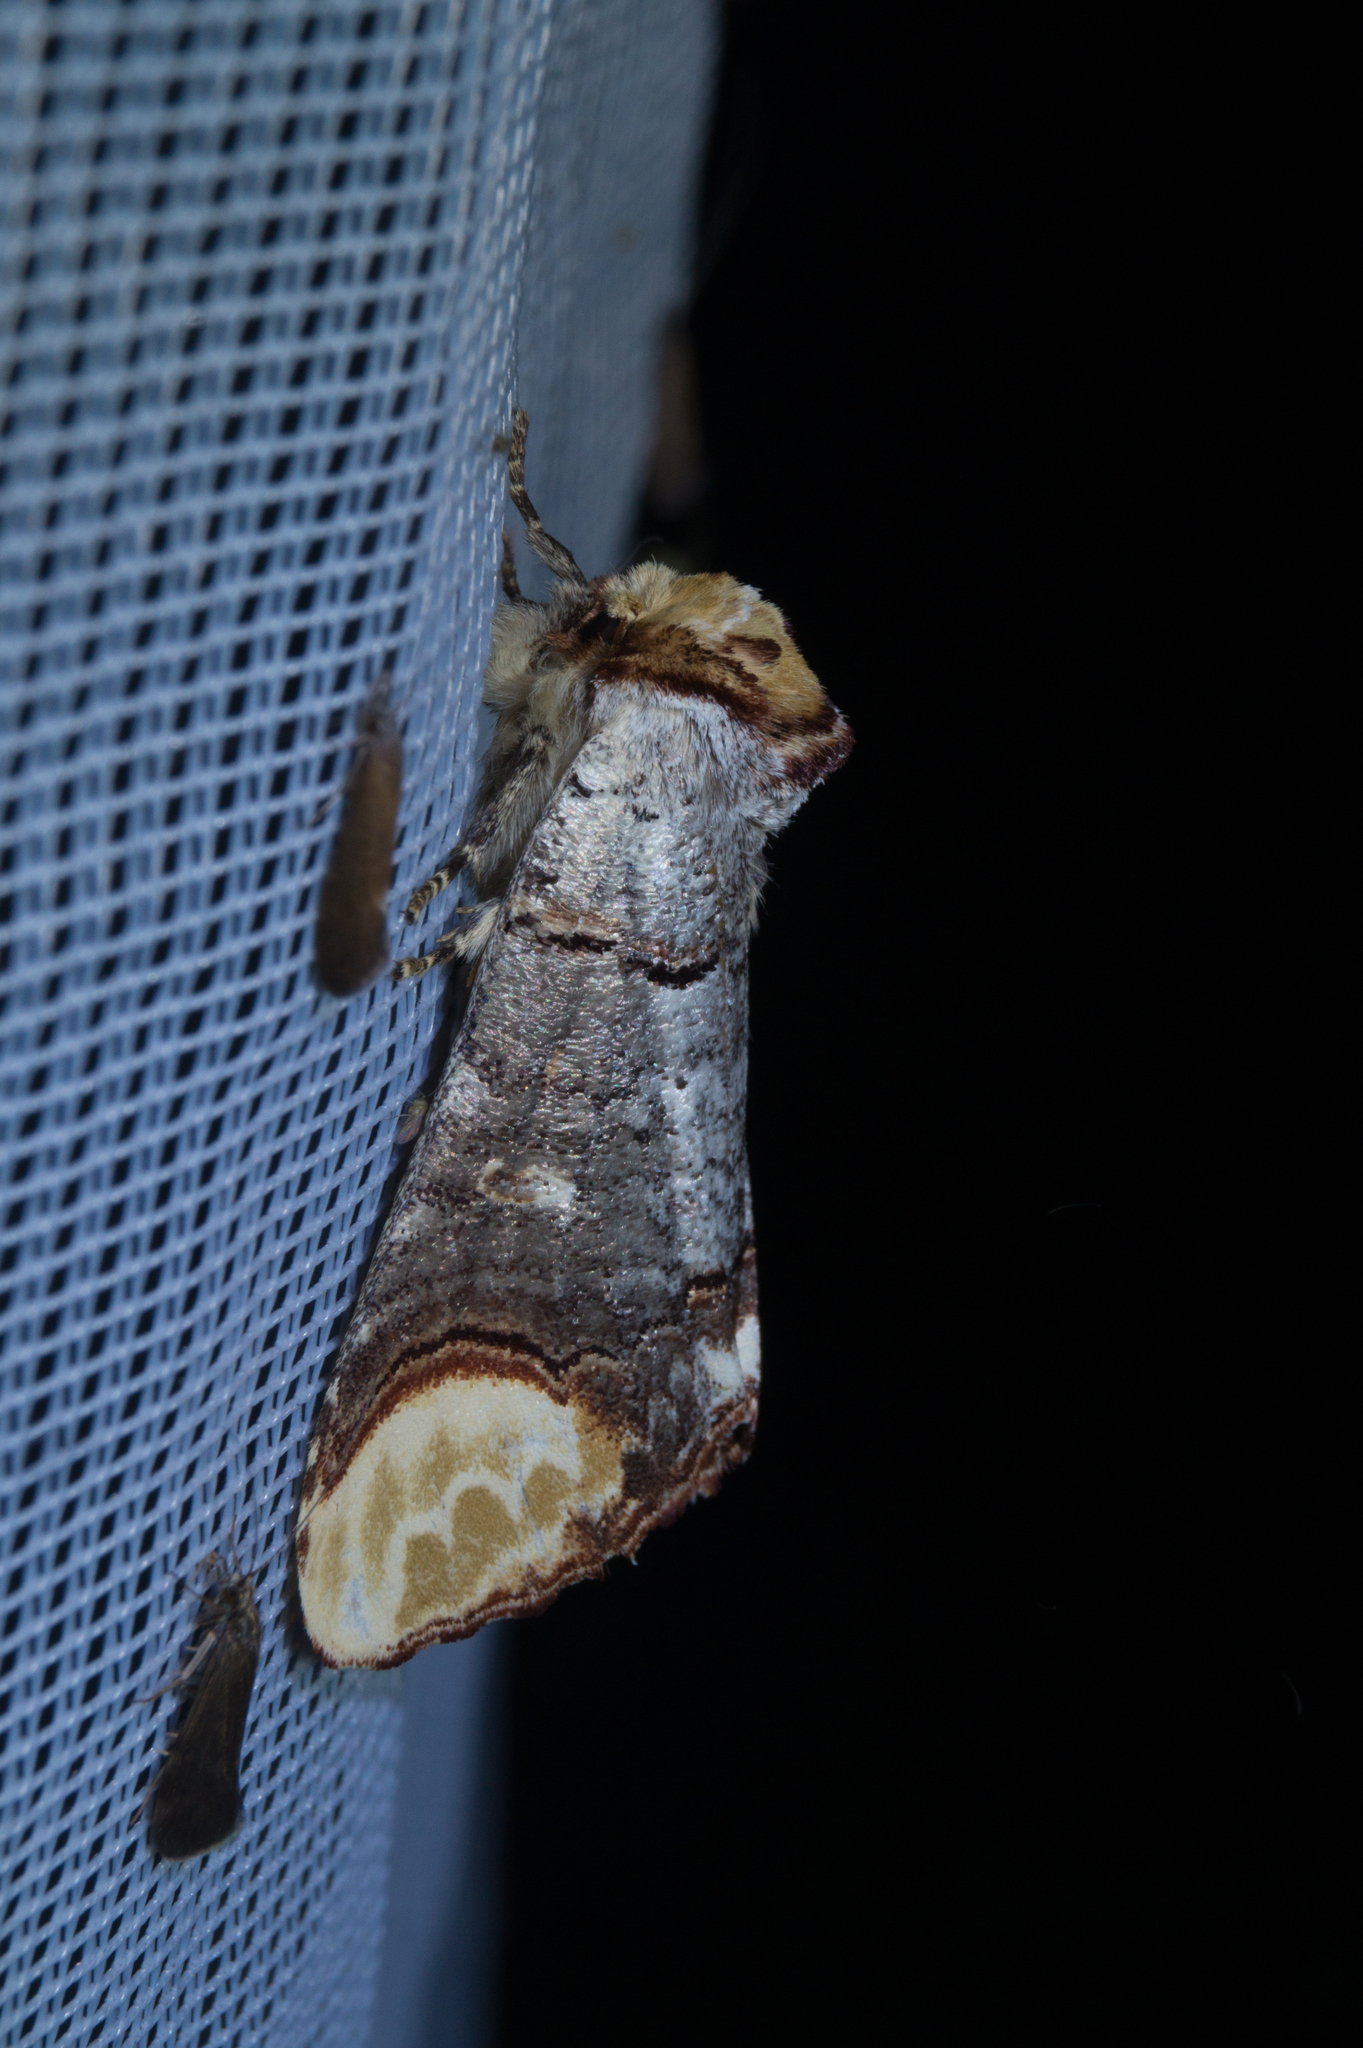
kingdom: Animalia
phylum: Arthropoda
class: Insecta
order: Lepidoptera
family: Notodontidae
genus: Phalera
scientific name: Phalera bucephala
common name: Buff-tip
